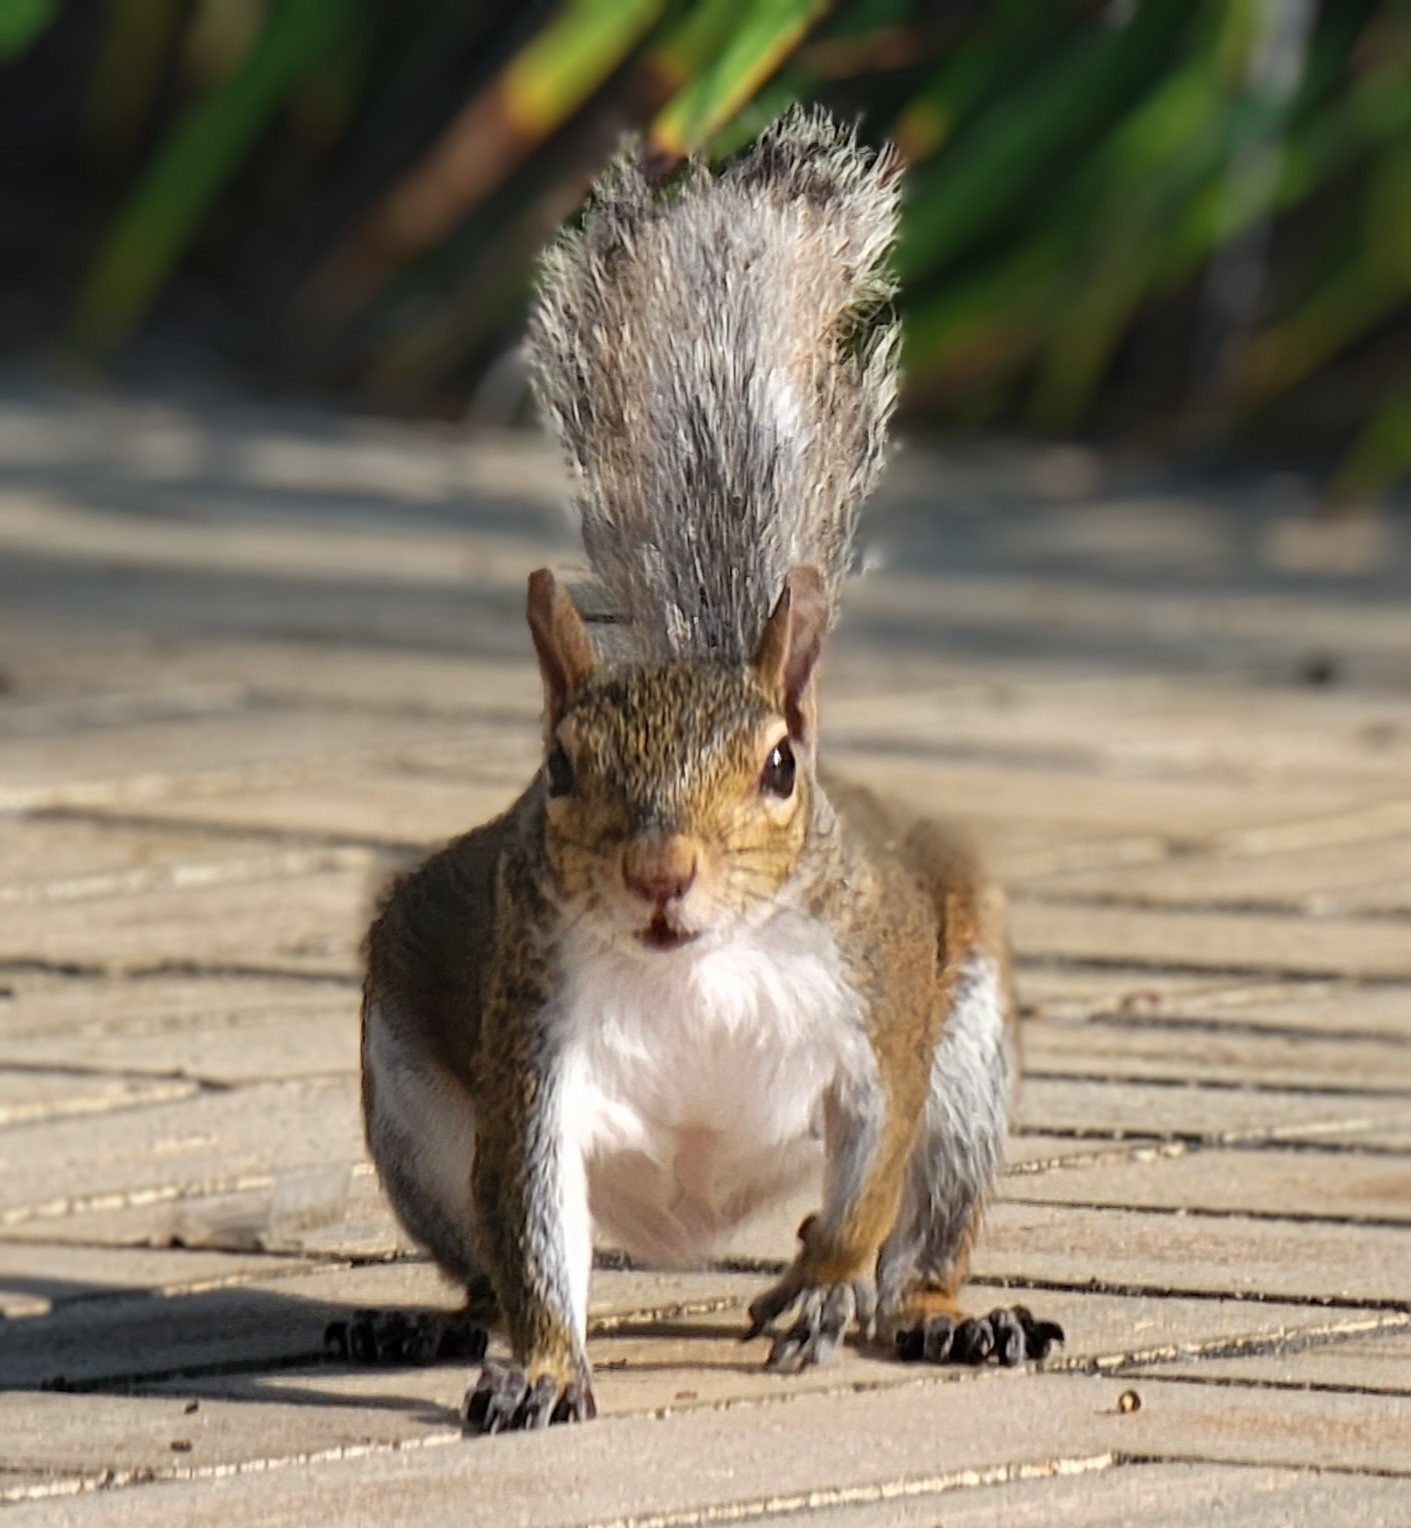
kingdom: Animalia
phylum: Chordata
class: Mammalia
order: Rodentia
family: Sciuridae
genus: Sciurus
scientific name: Sciurus carolinensis
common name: Eastern gray squirrel
